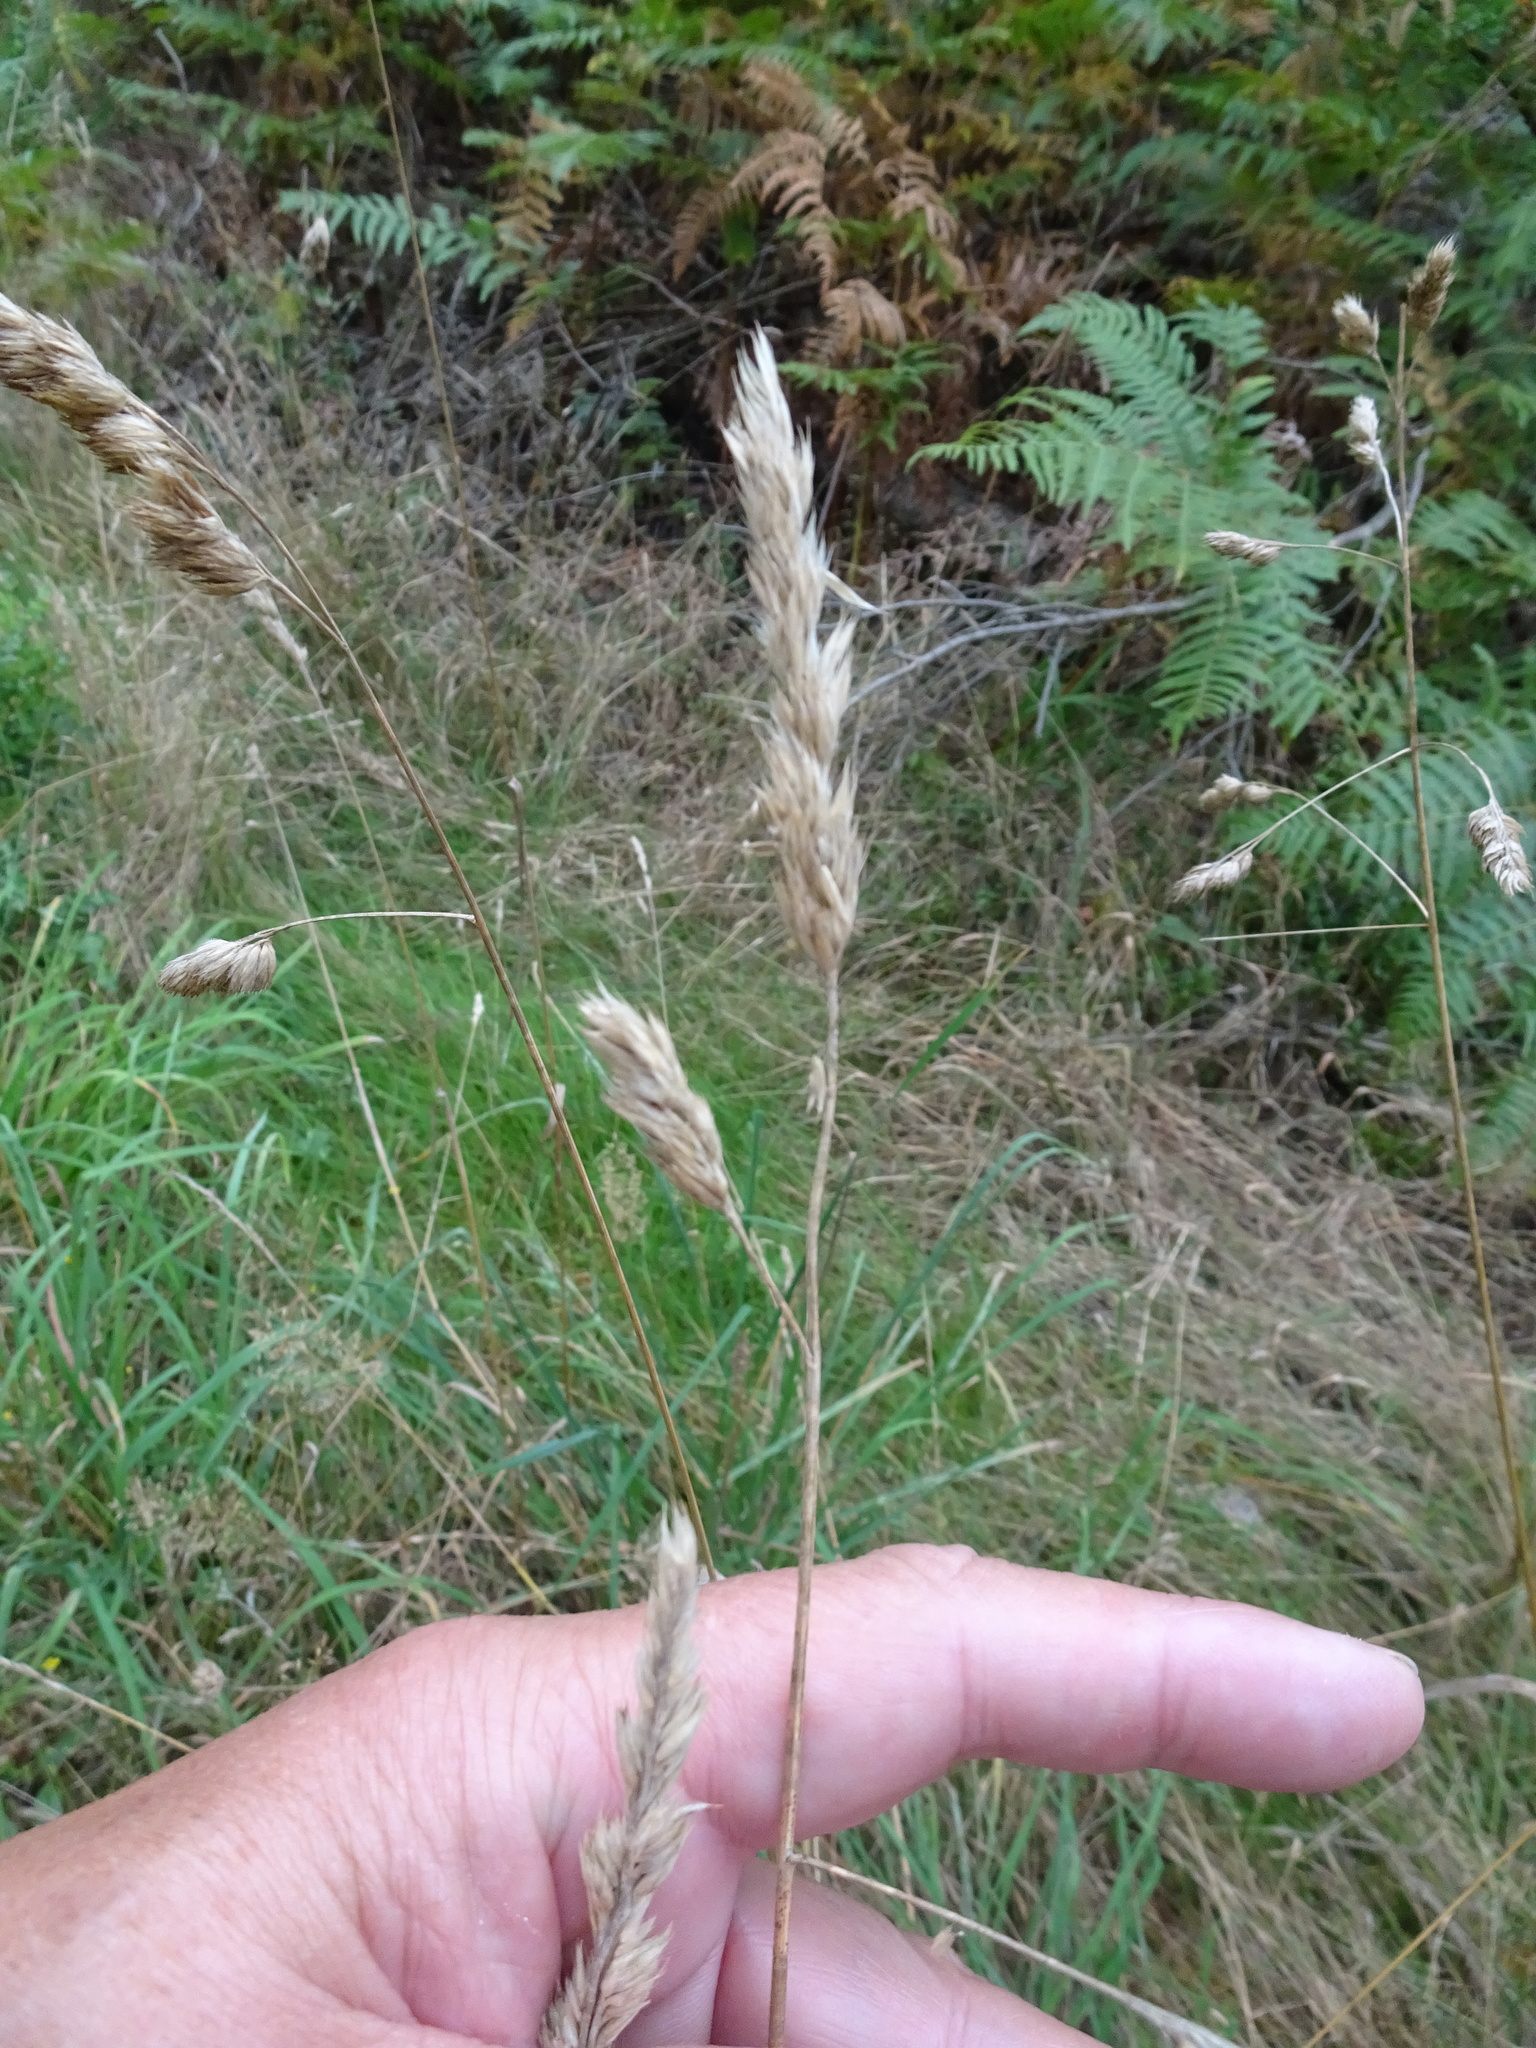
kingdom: Plantae
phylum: Tracheophyta
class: Liliopsida
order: Poales
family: Poaceae
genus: Dactylis
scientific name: Dactylis glomerata
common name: Orchardgrass
